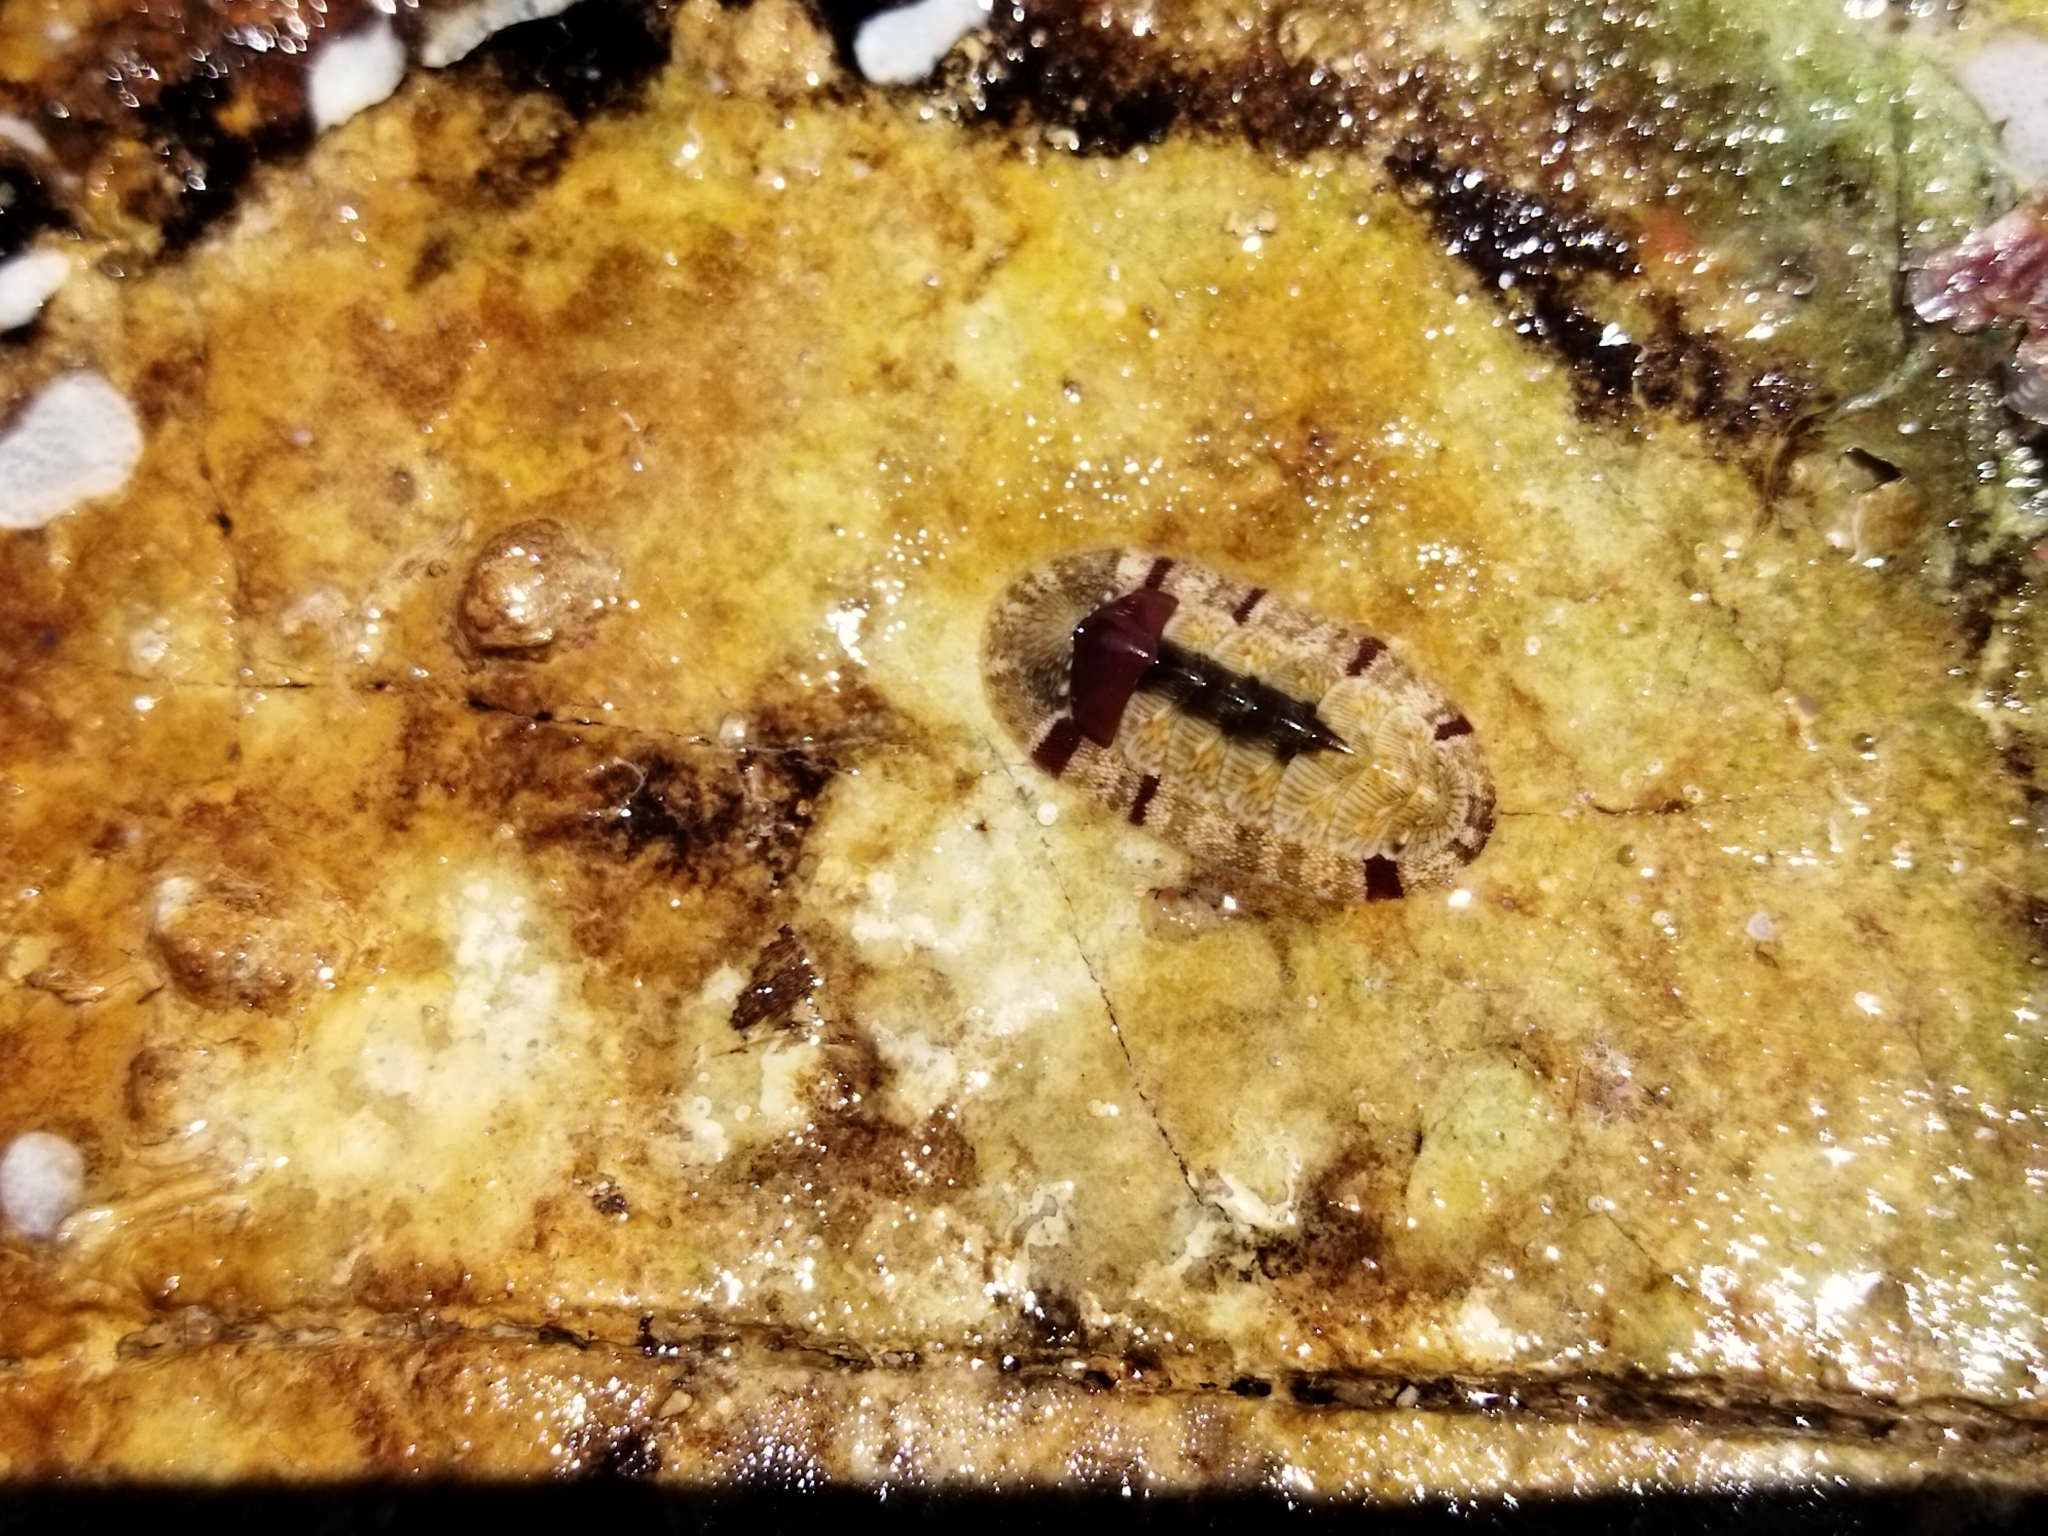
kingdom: Animalia
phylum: Mollusca
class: Polyplacophora
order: Chitonida
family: Chitonidae
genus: Rhyssoplax
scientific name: Rhyssoplax olivacea
